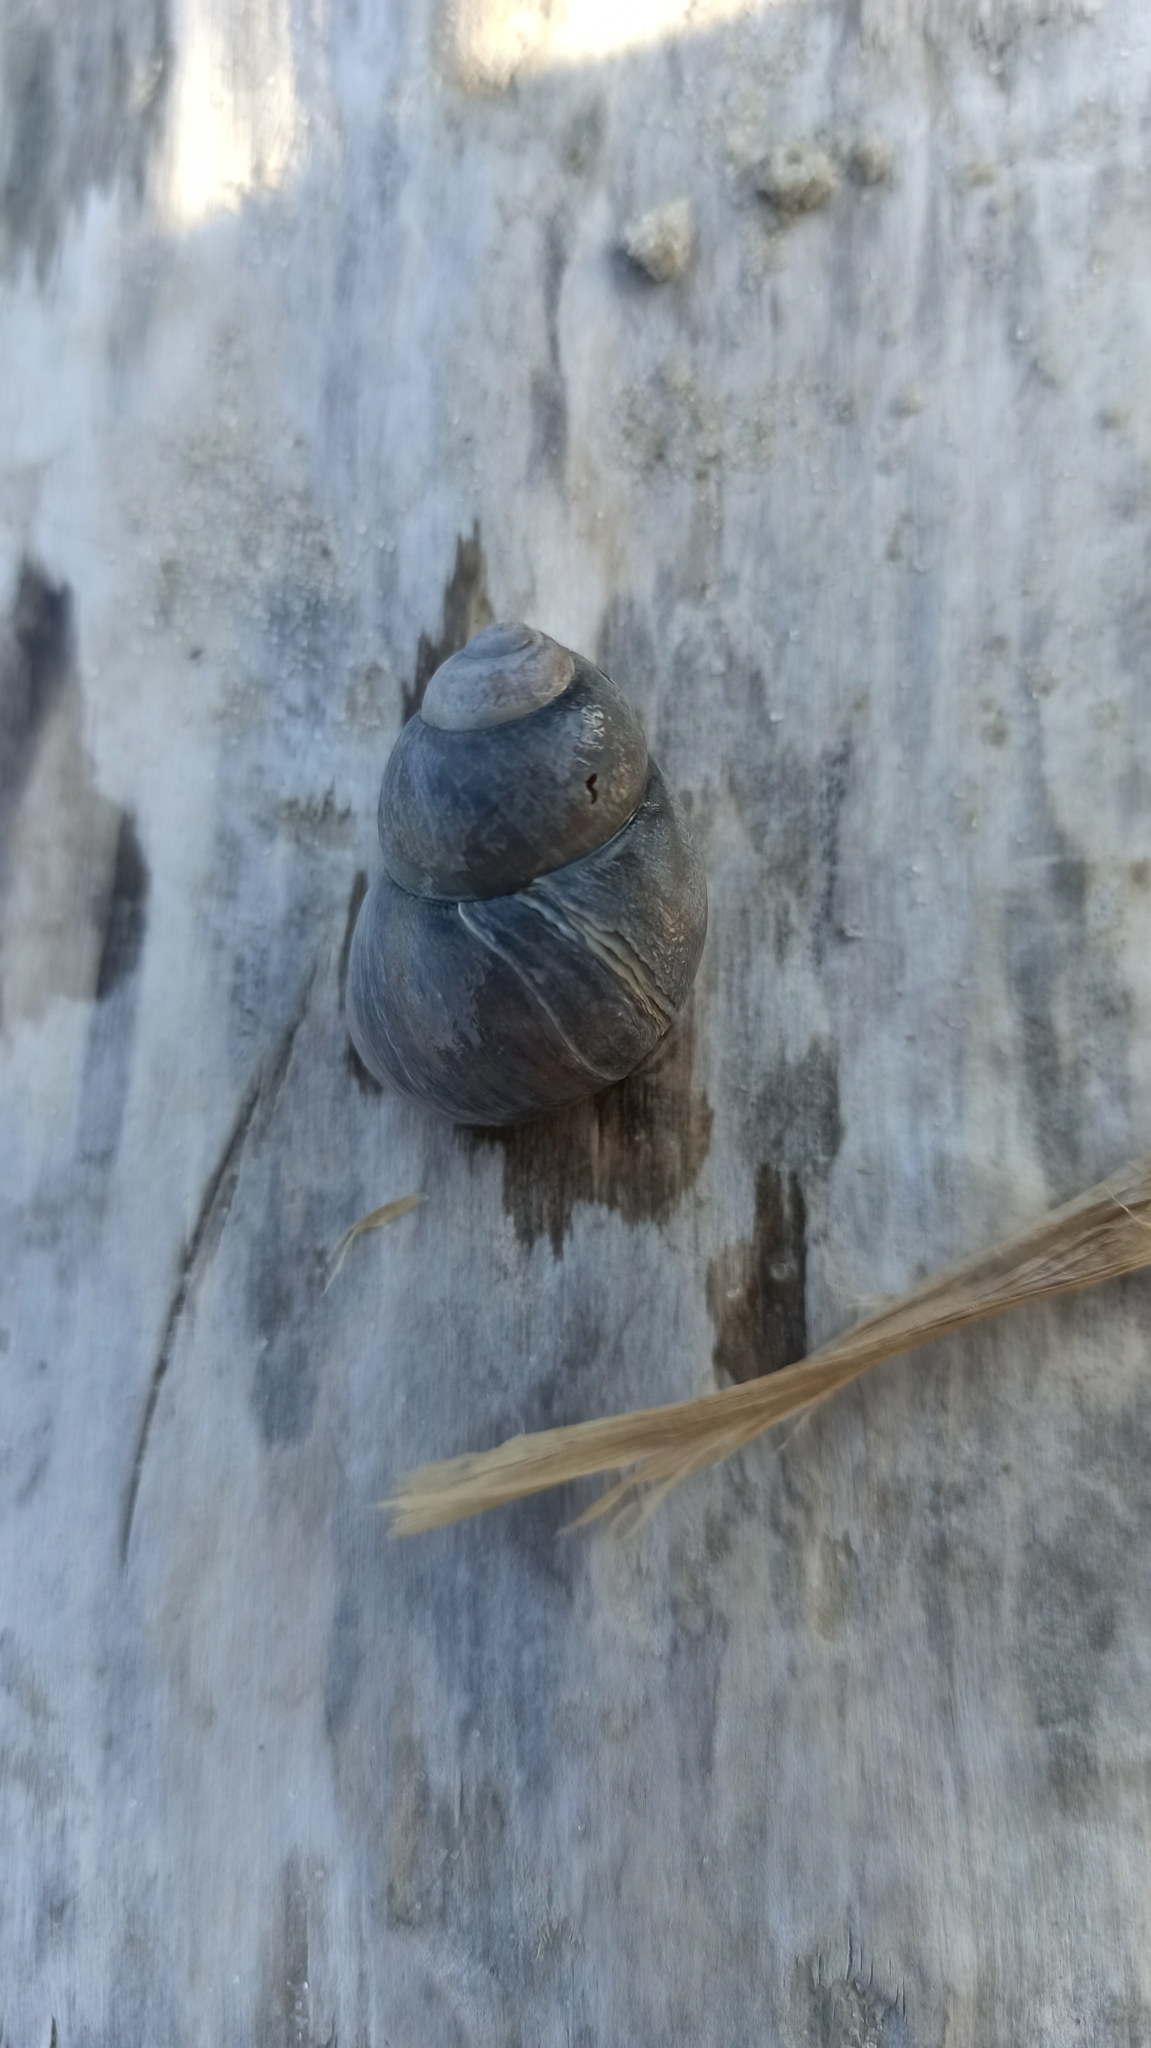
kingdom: Animalia
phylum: Mollusca
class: Gastropoda
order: Architaenioglossa
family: Viviparidae
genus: Viviparus
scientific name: Viviparus viviparus
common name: River snail
